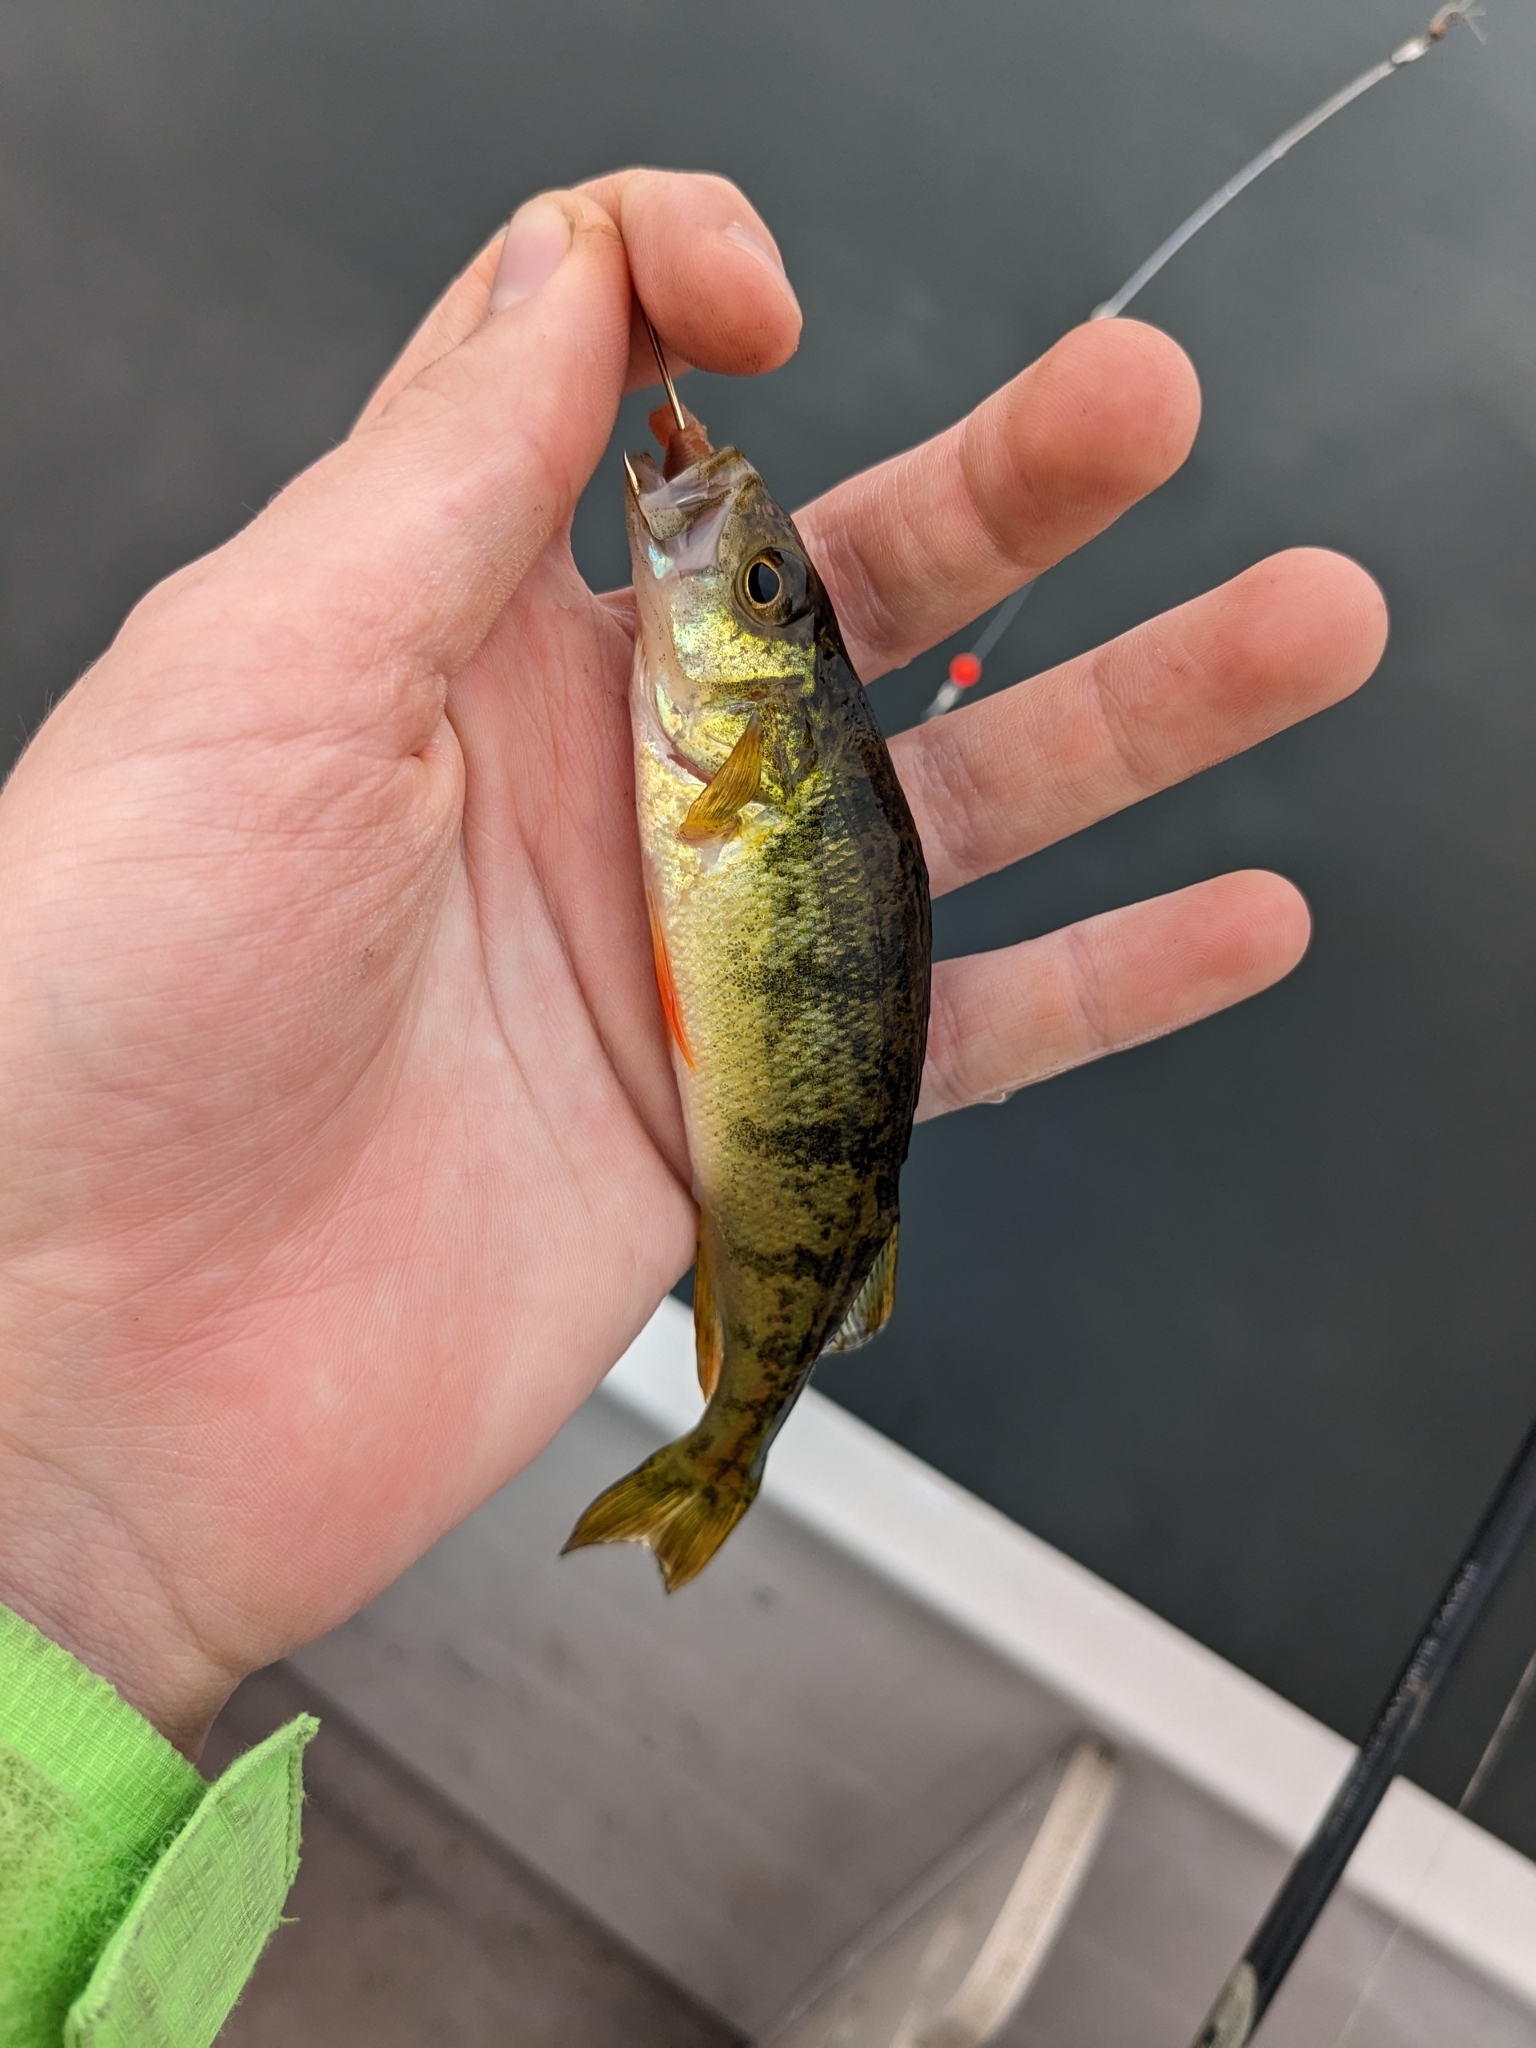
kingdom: Animalia
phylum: Chordata
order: Perciformes
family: Percidae
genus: Perca
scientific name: Perca flavescens
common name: Yellow perch
